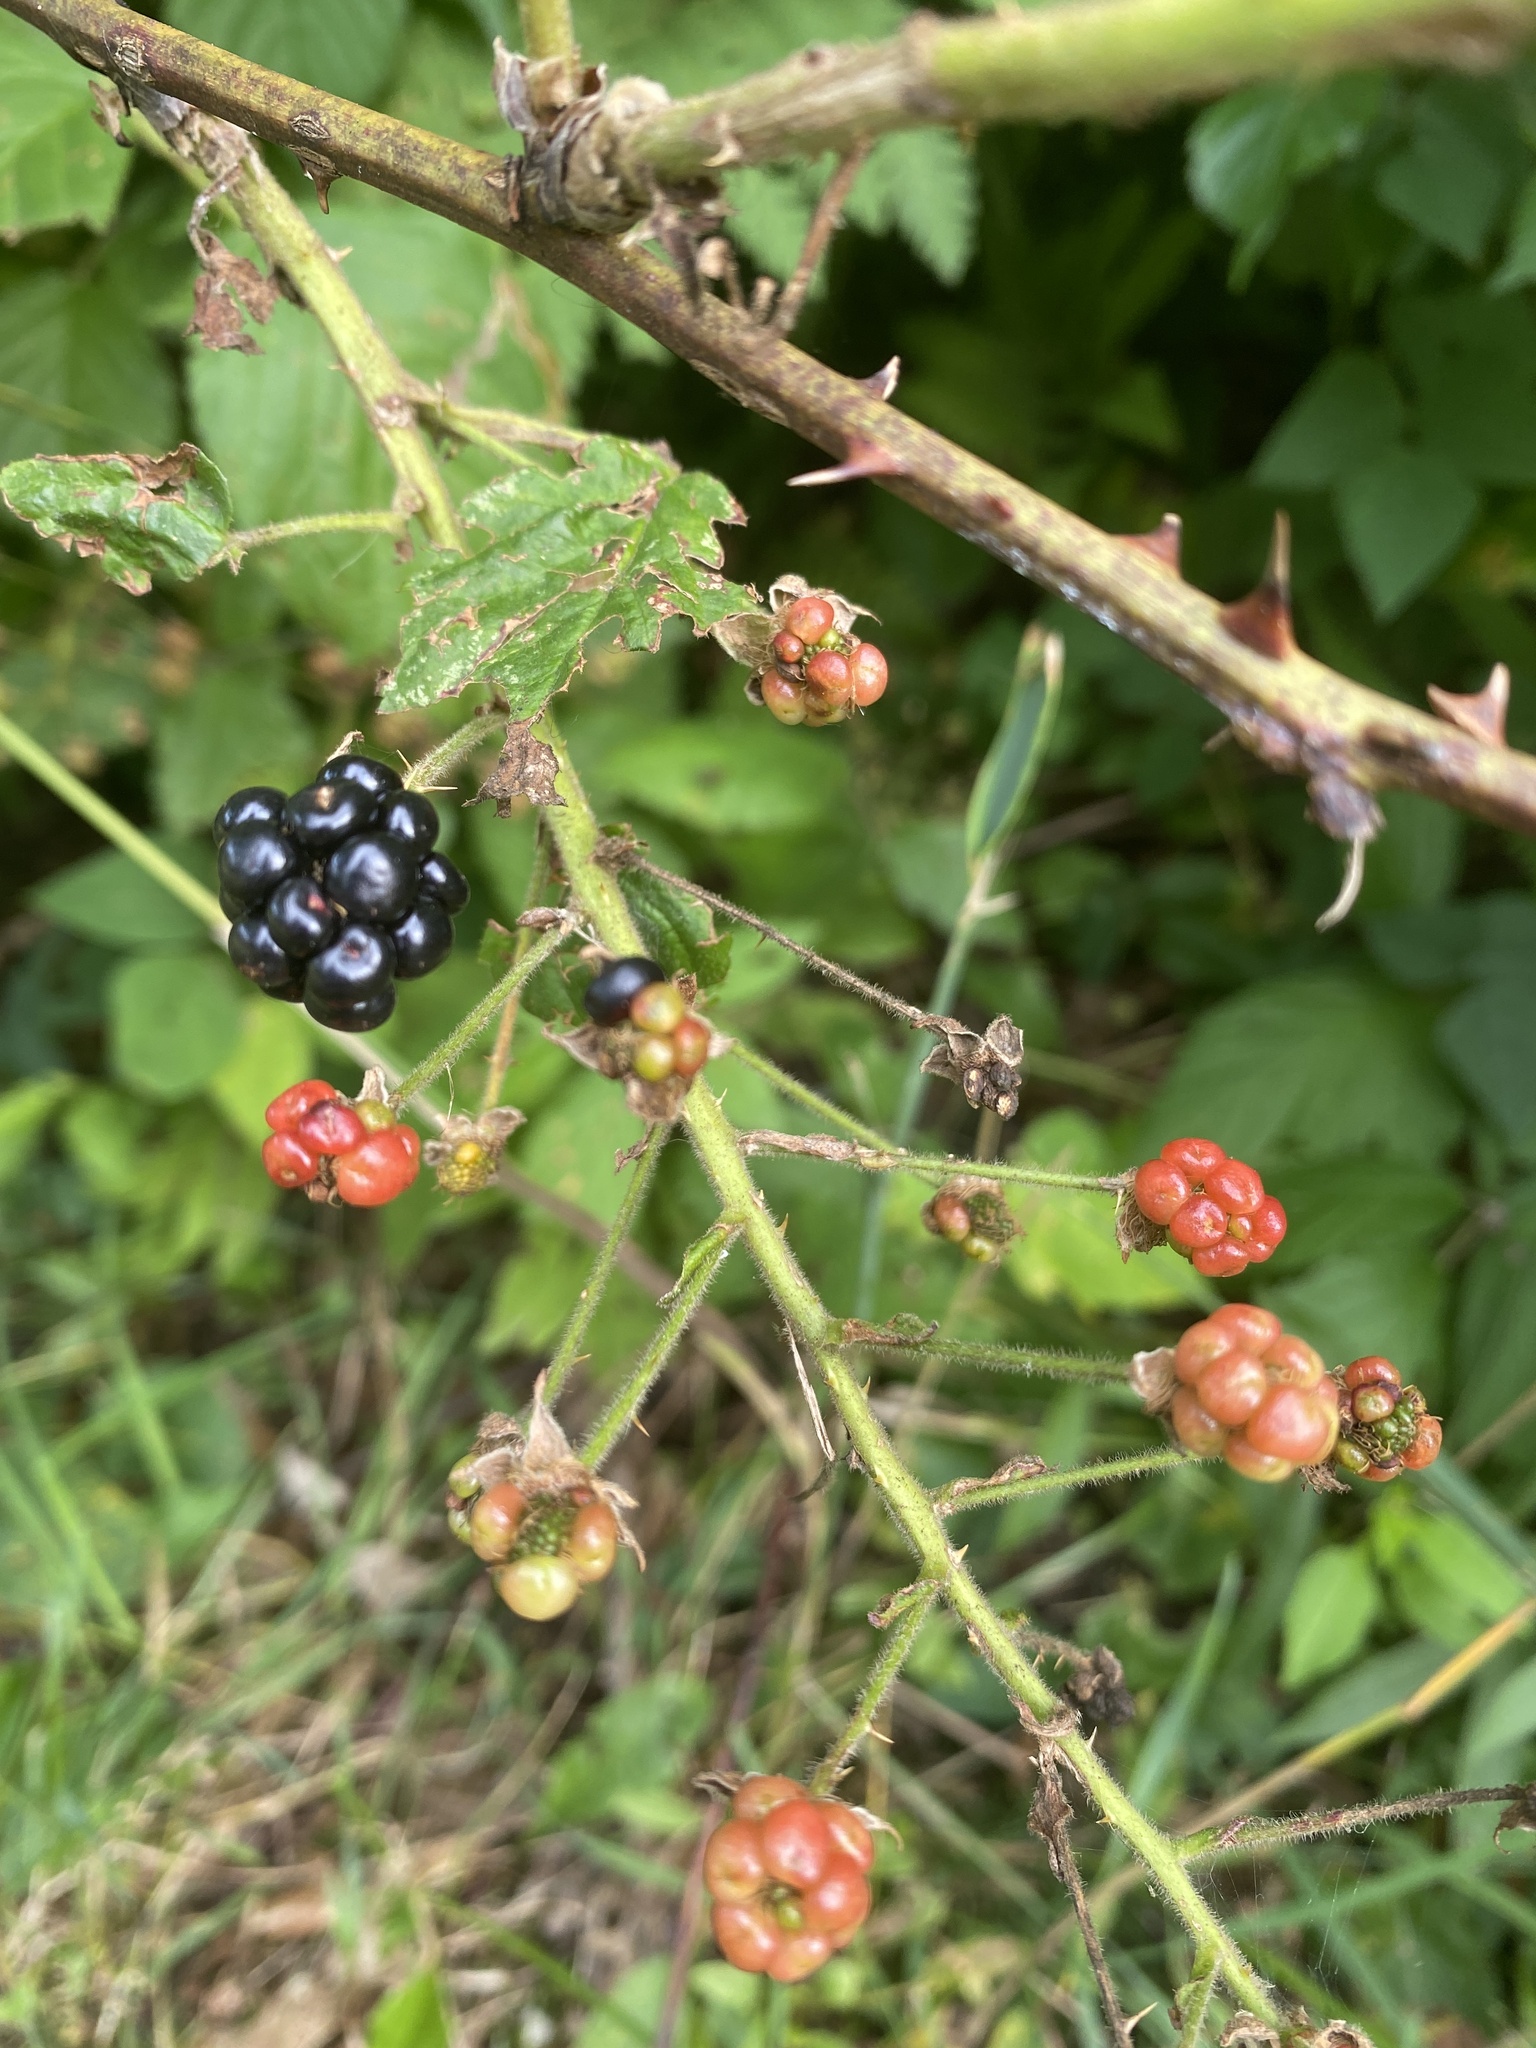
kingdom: Plantae
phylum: Tracheophyta
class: Magnoliopsida
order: Rosales
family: Rosaceae
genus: Rubus
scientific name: Rubus allegheniensis
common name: Allegheny blackberry
